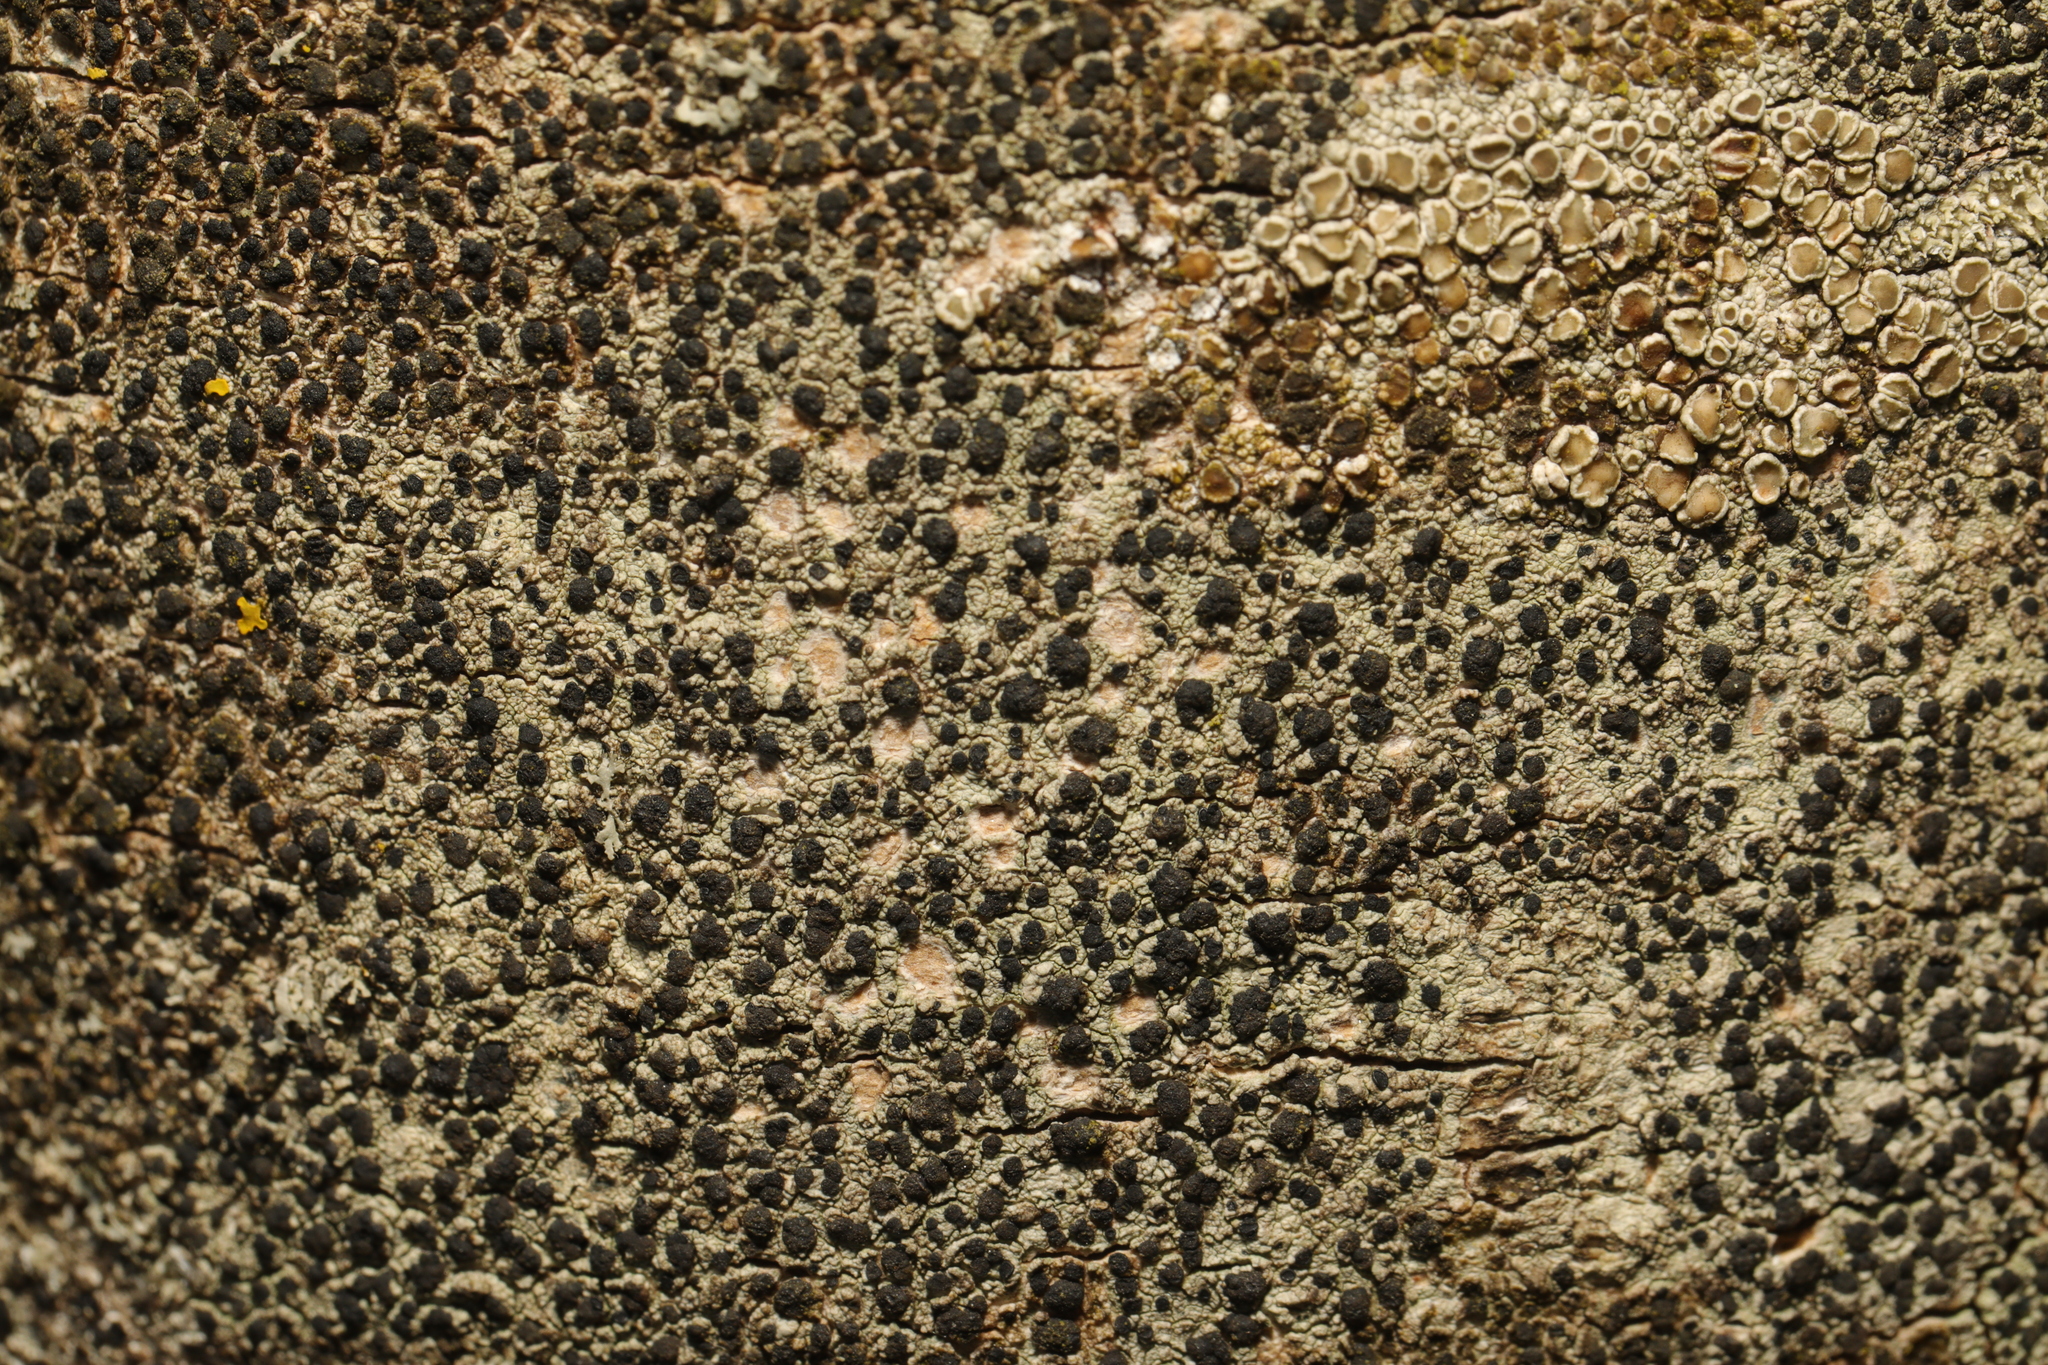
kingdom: Fungi
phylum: Ascomycota
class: Lecanoromycetes
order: Lecanorales
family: Lecanoraceae
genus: Lecidella
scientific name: Lecidella elaeochroma
